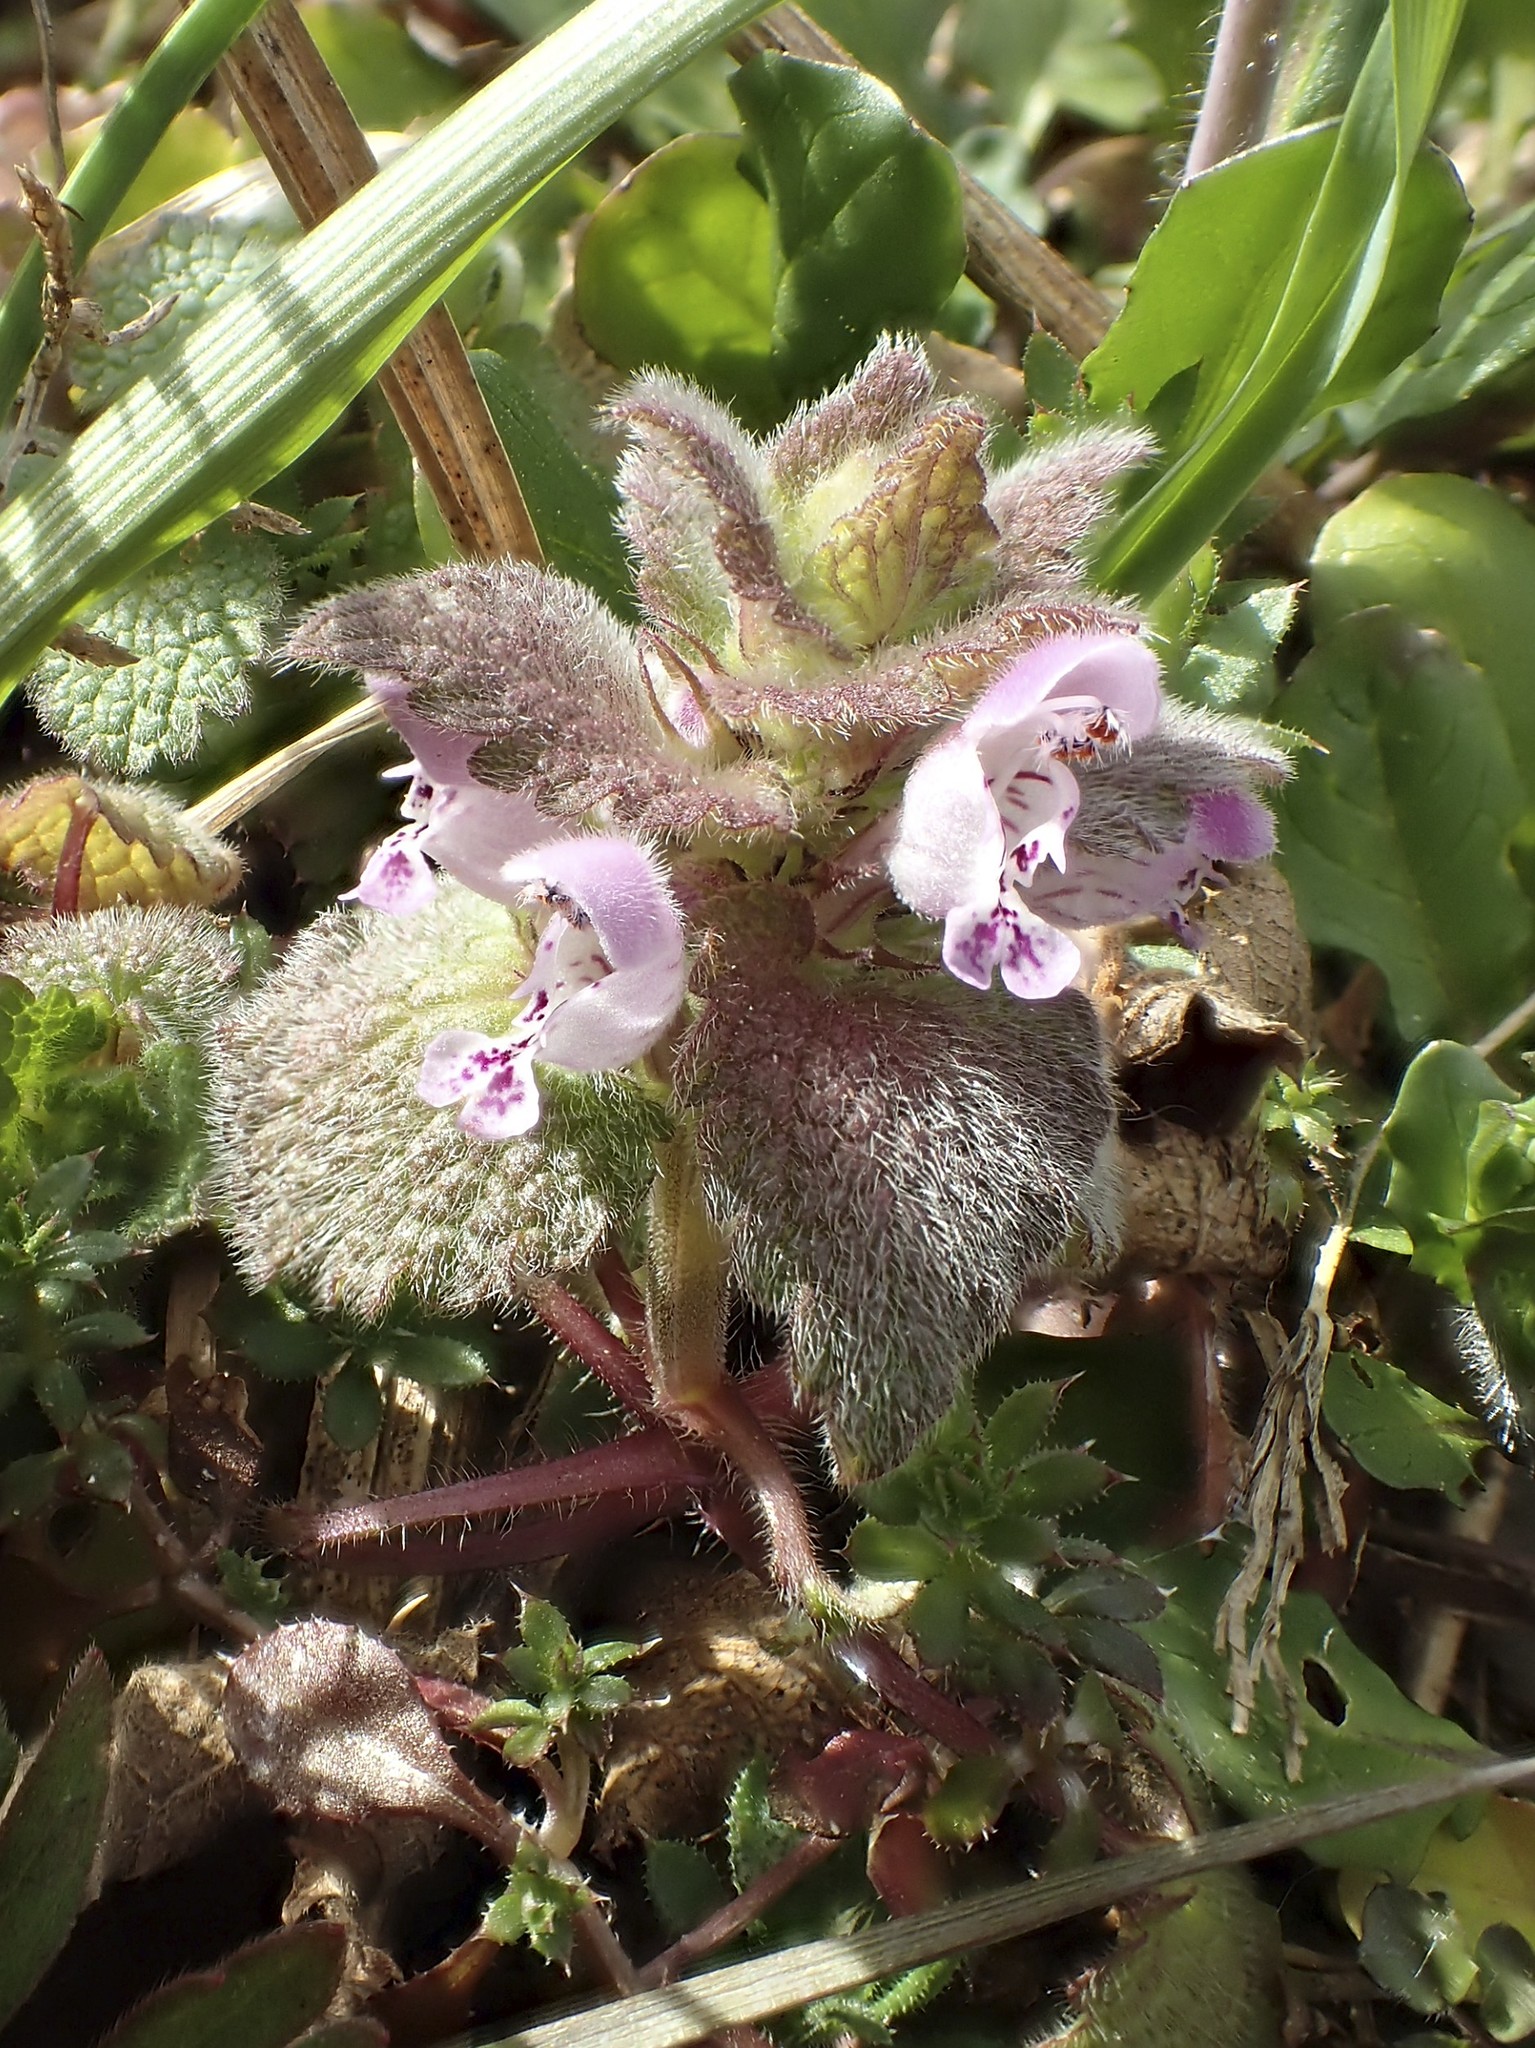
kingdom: Plantae
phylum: Tracheophyta
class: Magnoliopsida
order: Lamiales
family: Lamiaceae
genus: Lamium
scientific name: Lamium purpureum
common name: Red dead-nettle
